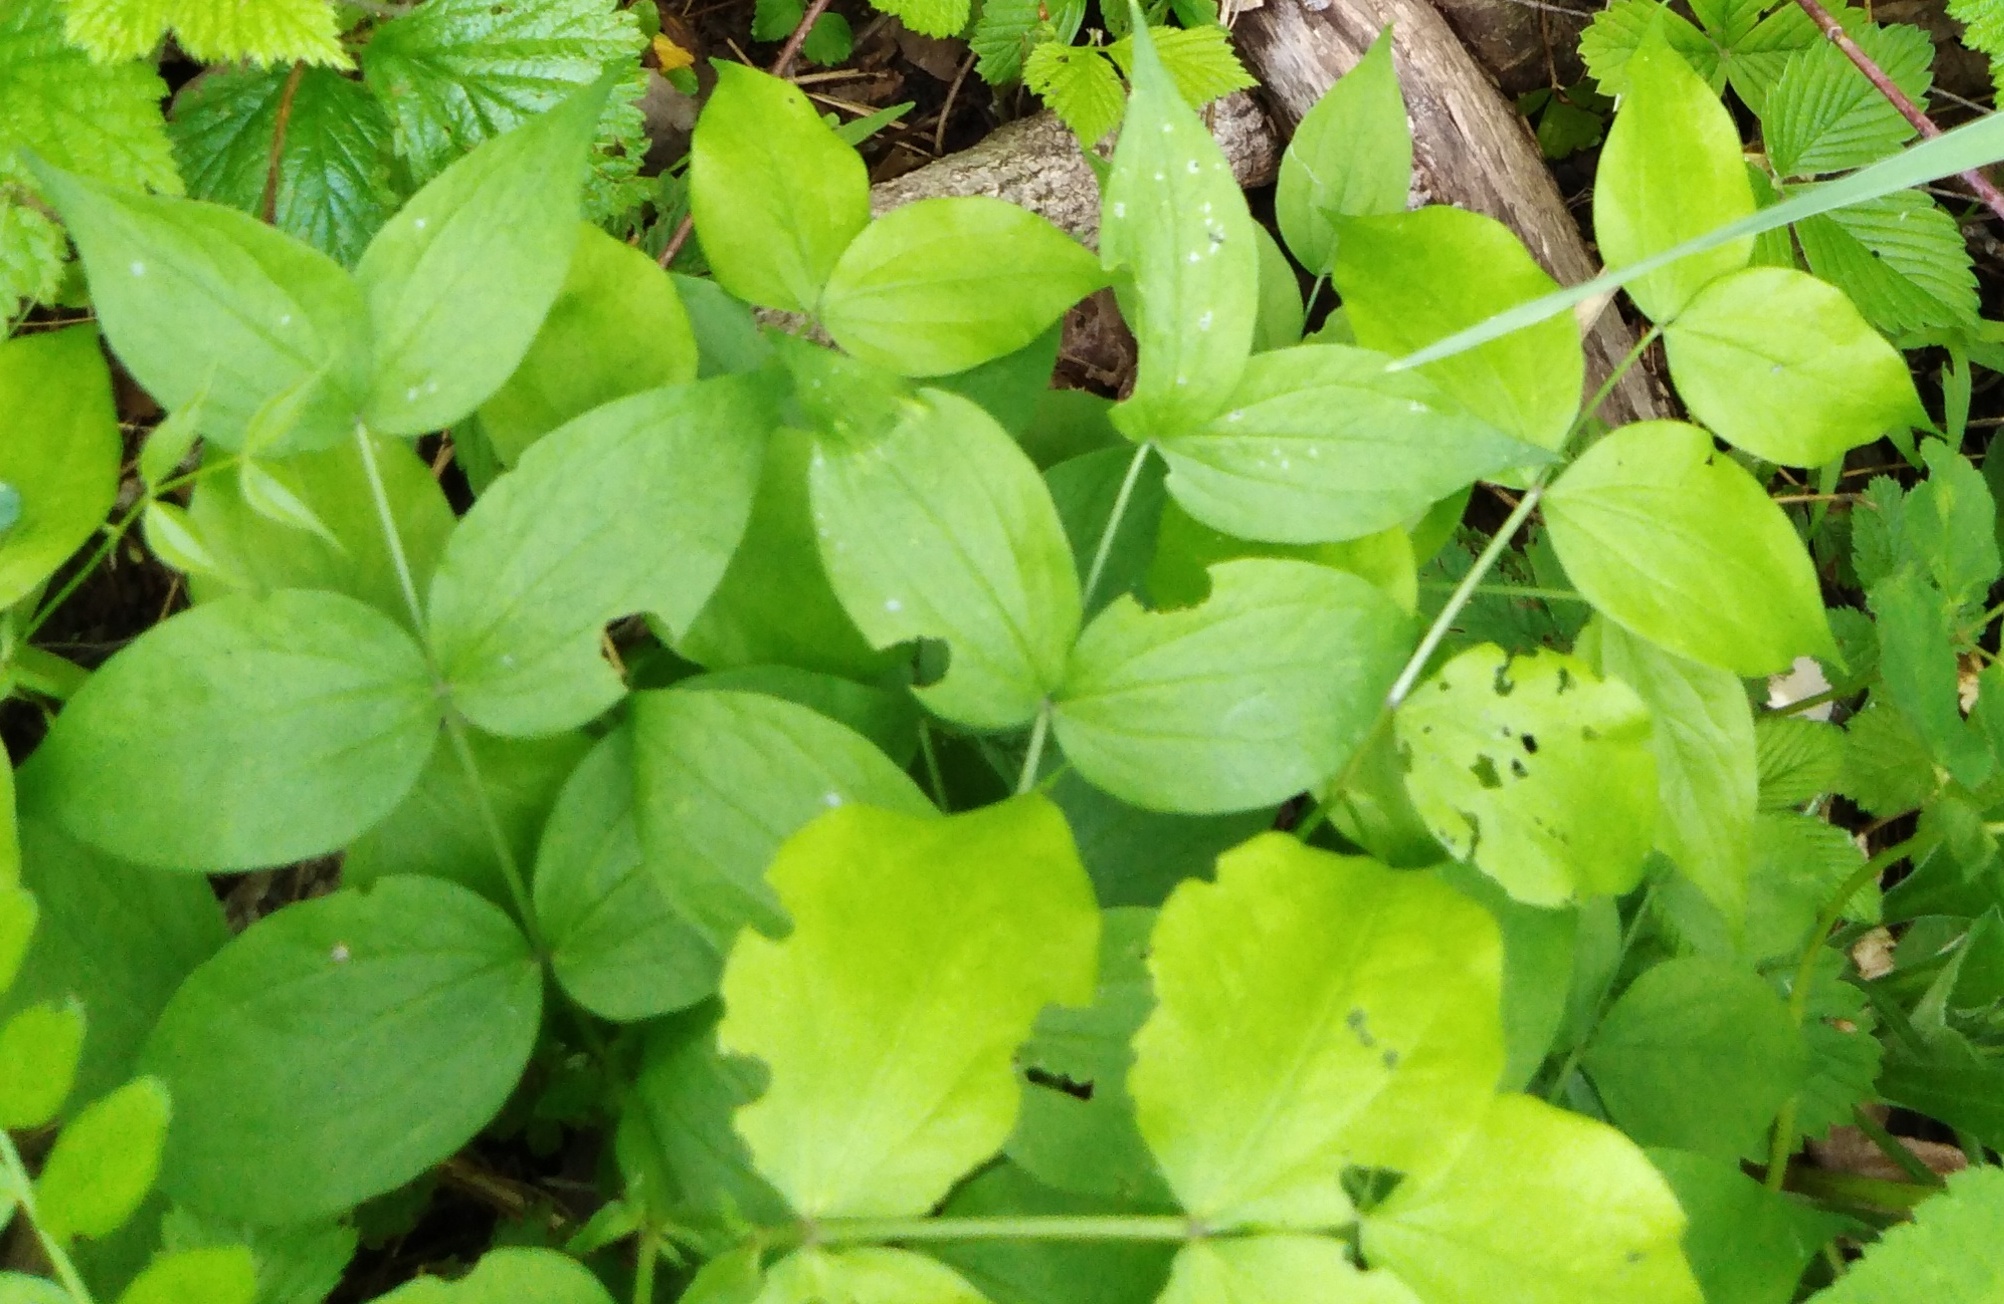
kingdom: Plantae
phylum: Tracheophyta
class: Magnoliopsida
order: Fabales
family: Fabaceae
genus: Lathyrus
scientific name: Lathyrus vernus
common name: Spring pea
